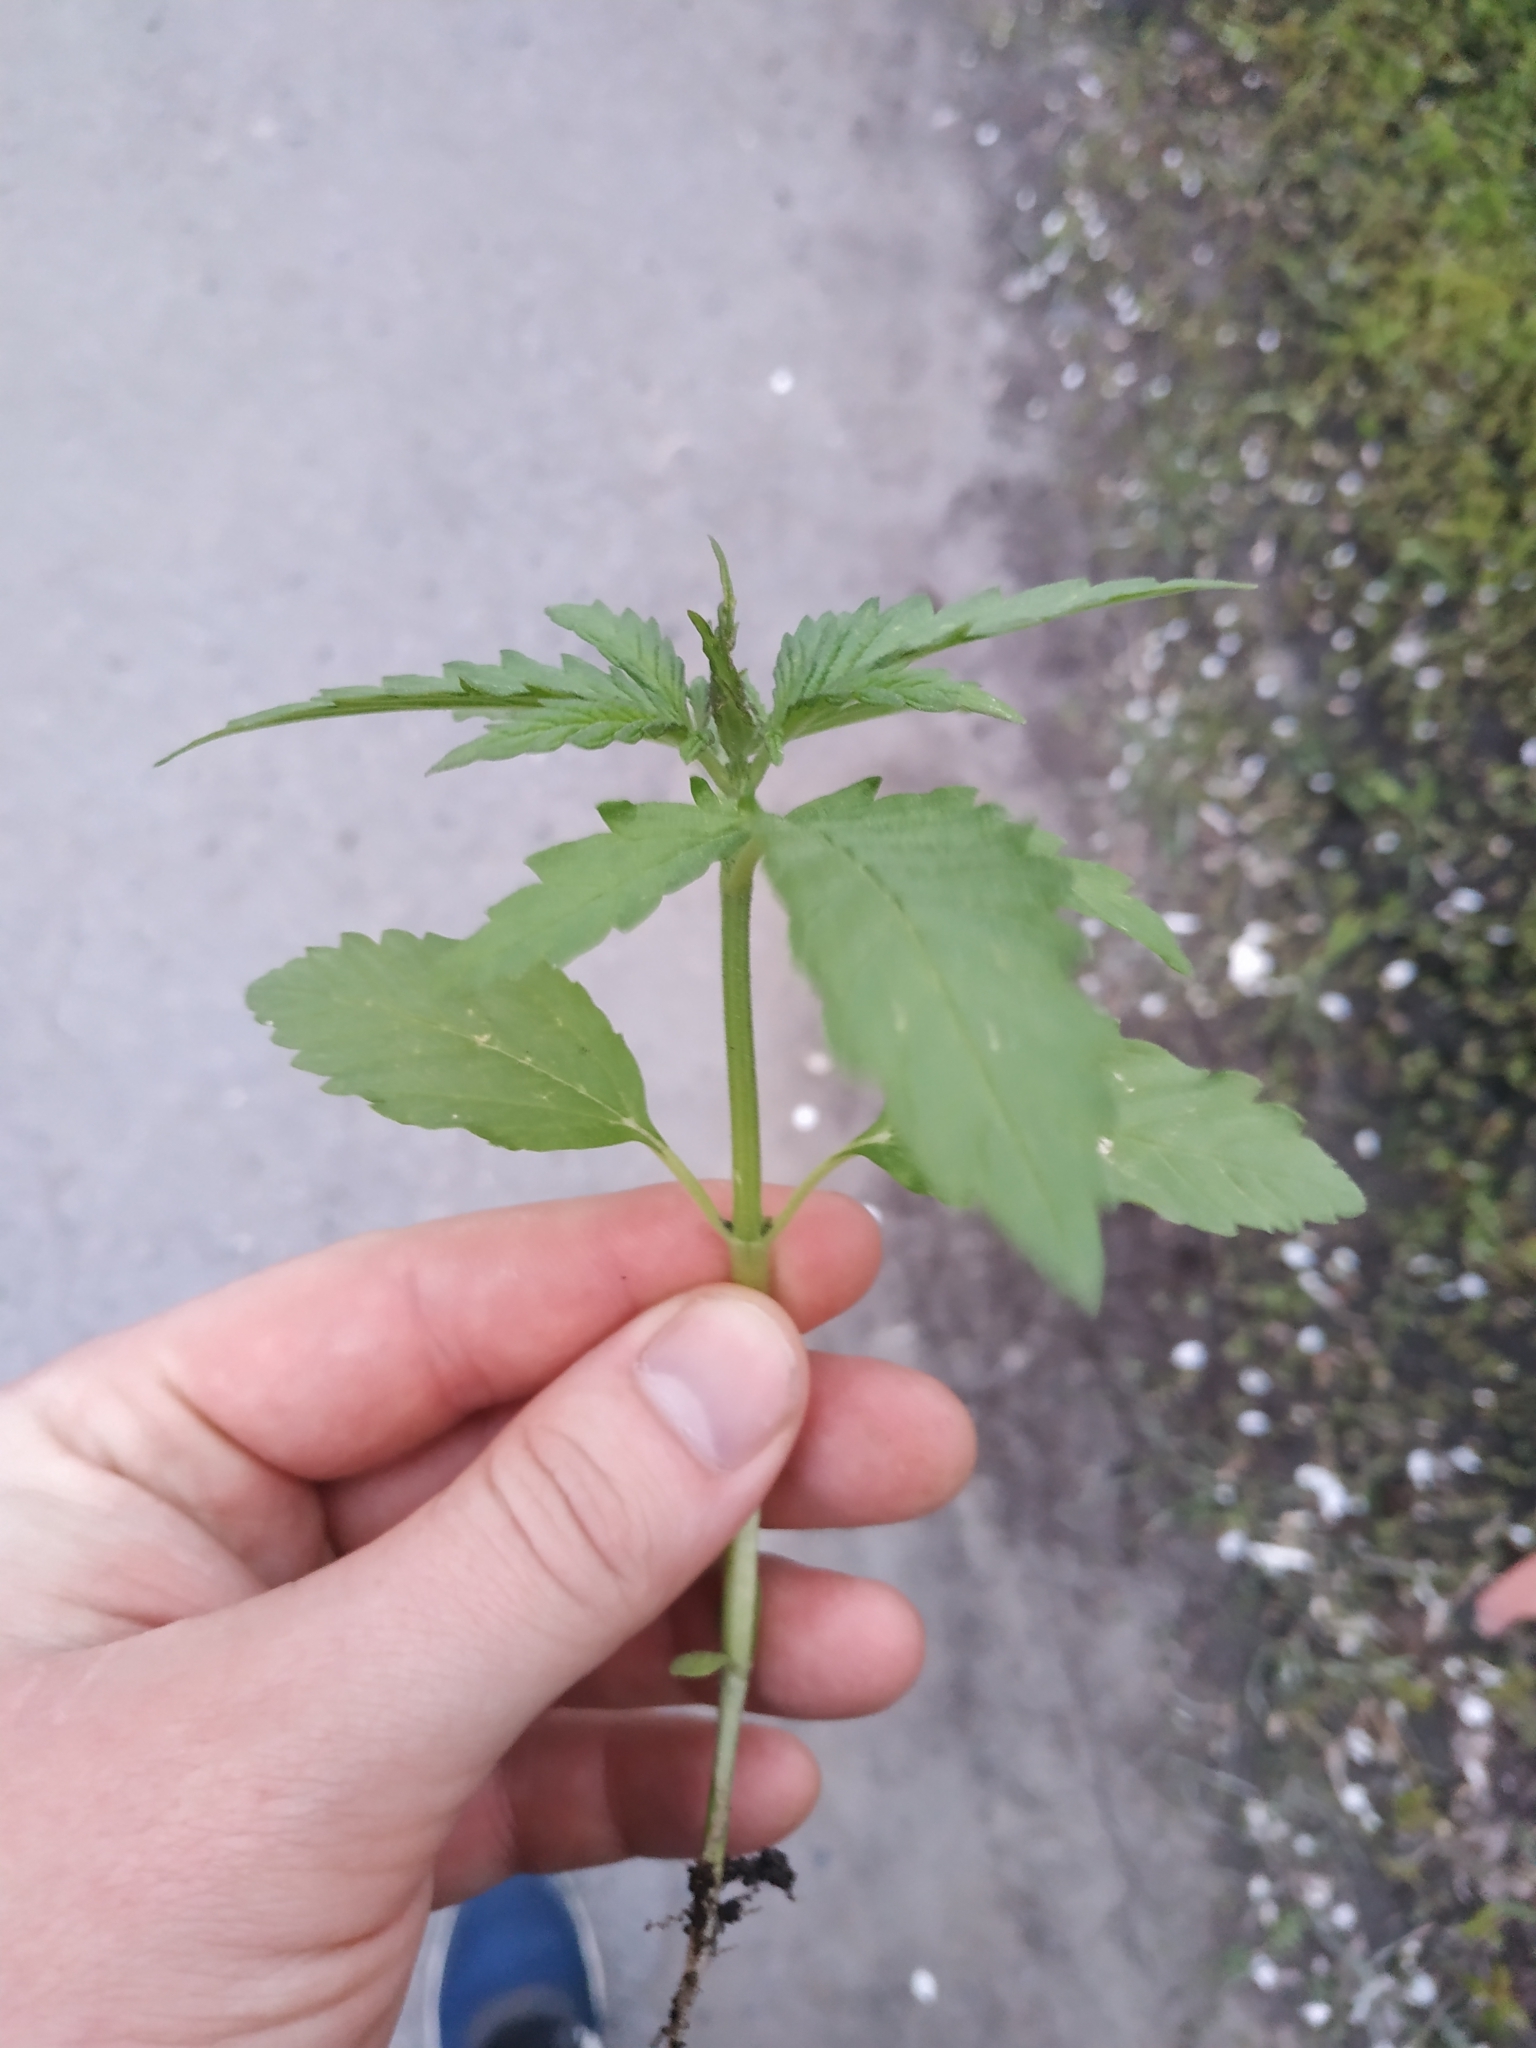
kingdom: Plantae
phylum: Tracheophyta
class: Magnoliopsida
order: Rosales
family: Cannabaceae
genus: Cannabis
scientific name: Cannabis sativa
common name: Hemp
